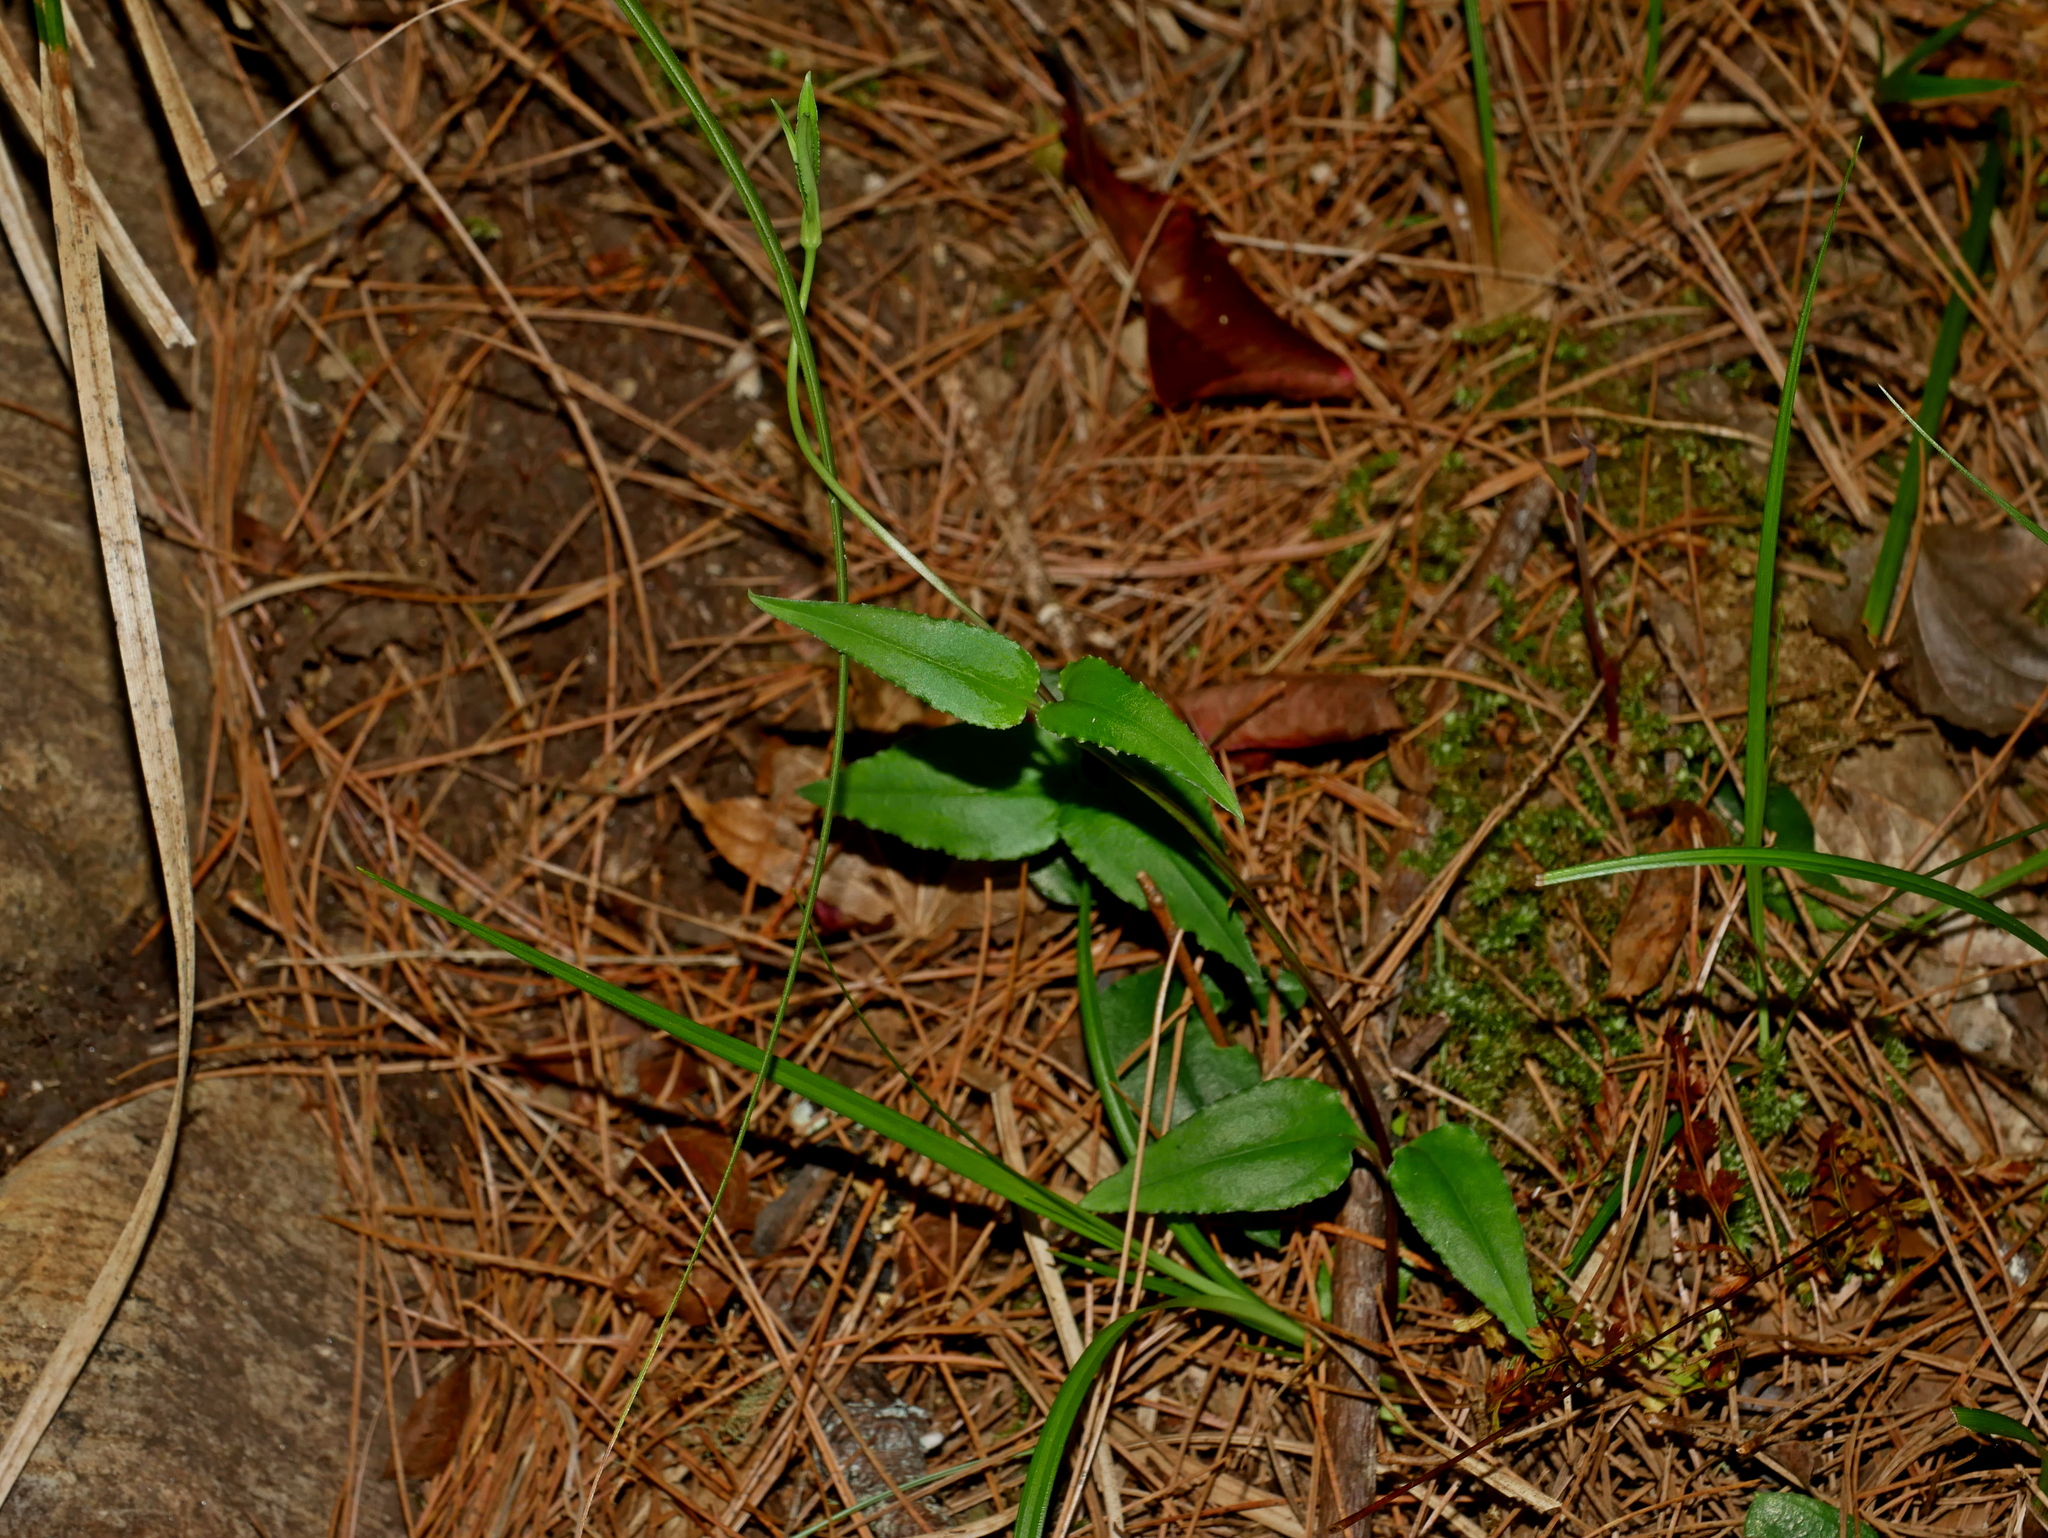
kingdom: Plantae
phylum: Tracheophyta
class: Magnoliopsida
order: Gentianales
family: Gentianaceae
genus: Tripterospermum
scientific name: Tripterospermum lanceolatum
